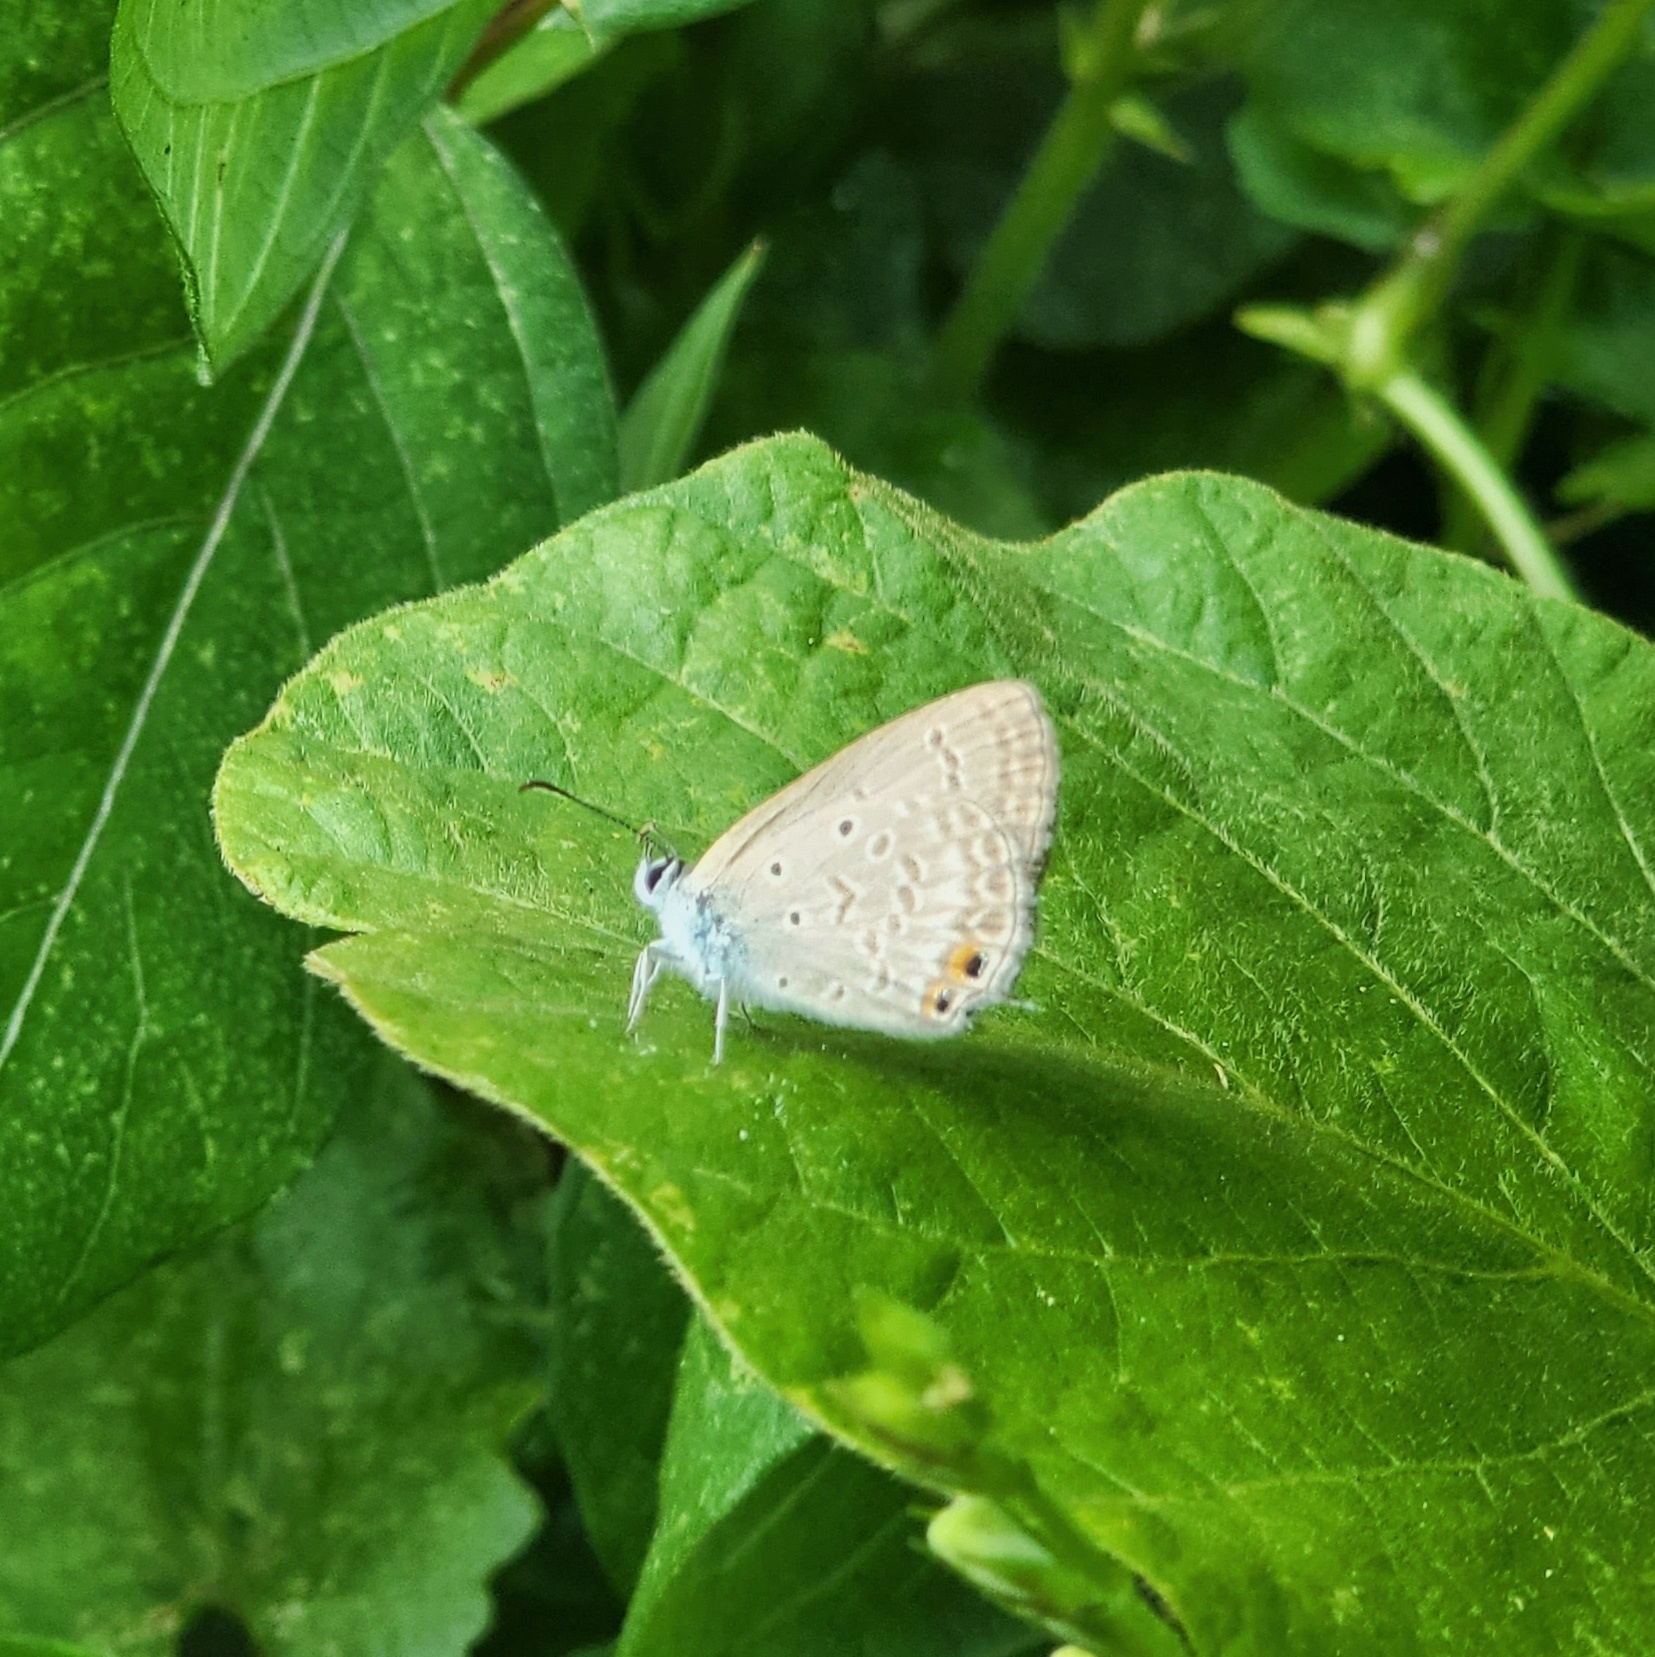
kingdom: Animalia
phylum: Arthropoda
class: Insecta
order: Lepidoptera
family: Lycaenidae
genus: Euchrysops
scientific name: Euchrysops cnejus
